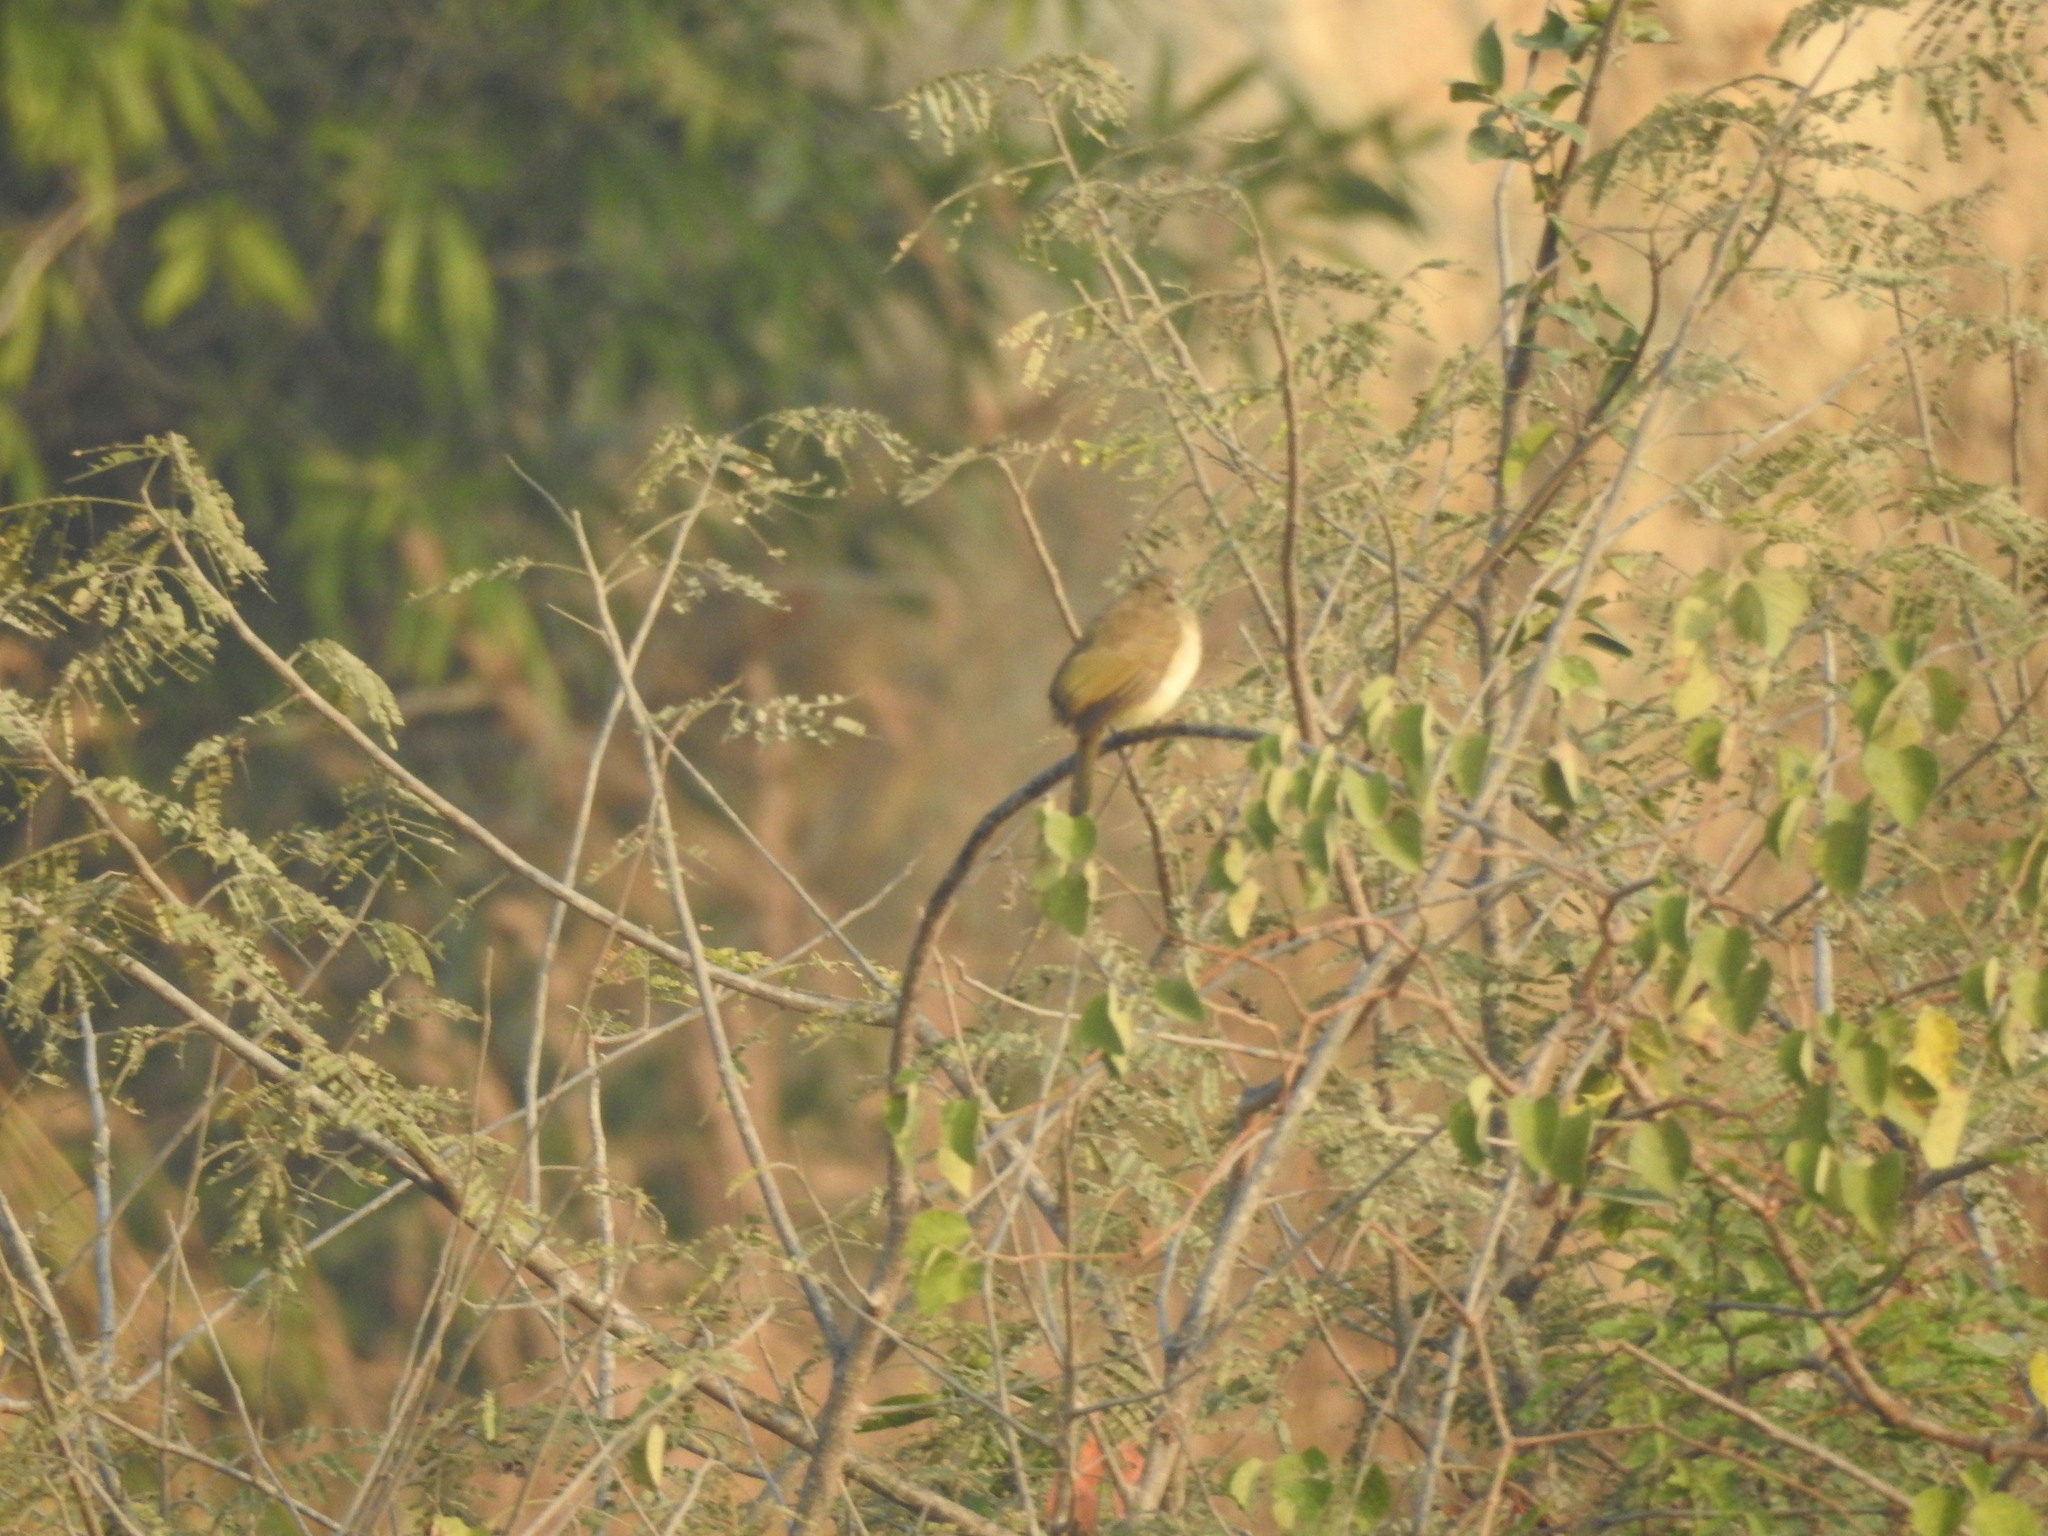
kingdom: Animalia
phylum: Chordata
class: Aves
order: Passeriformes
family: Pycnonotidae
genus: Pycnonotus
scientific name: Pycnonotus luteolus
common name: White-browed bulbul
